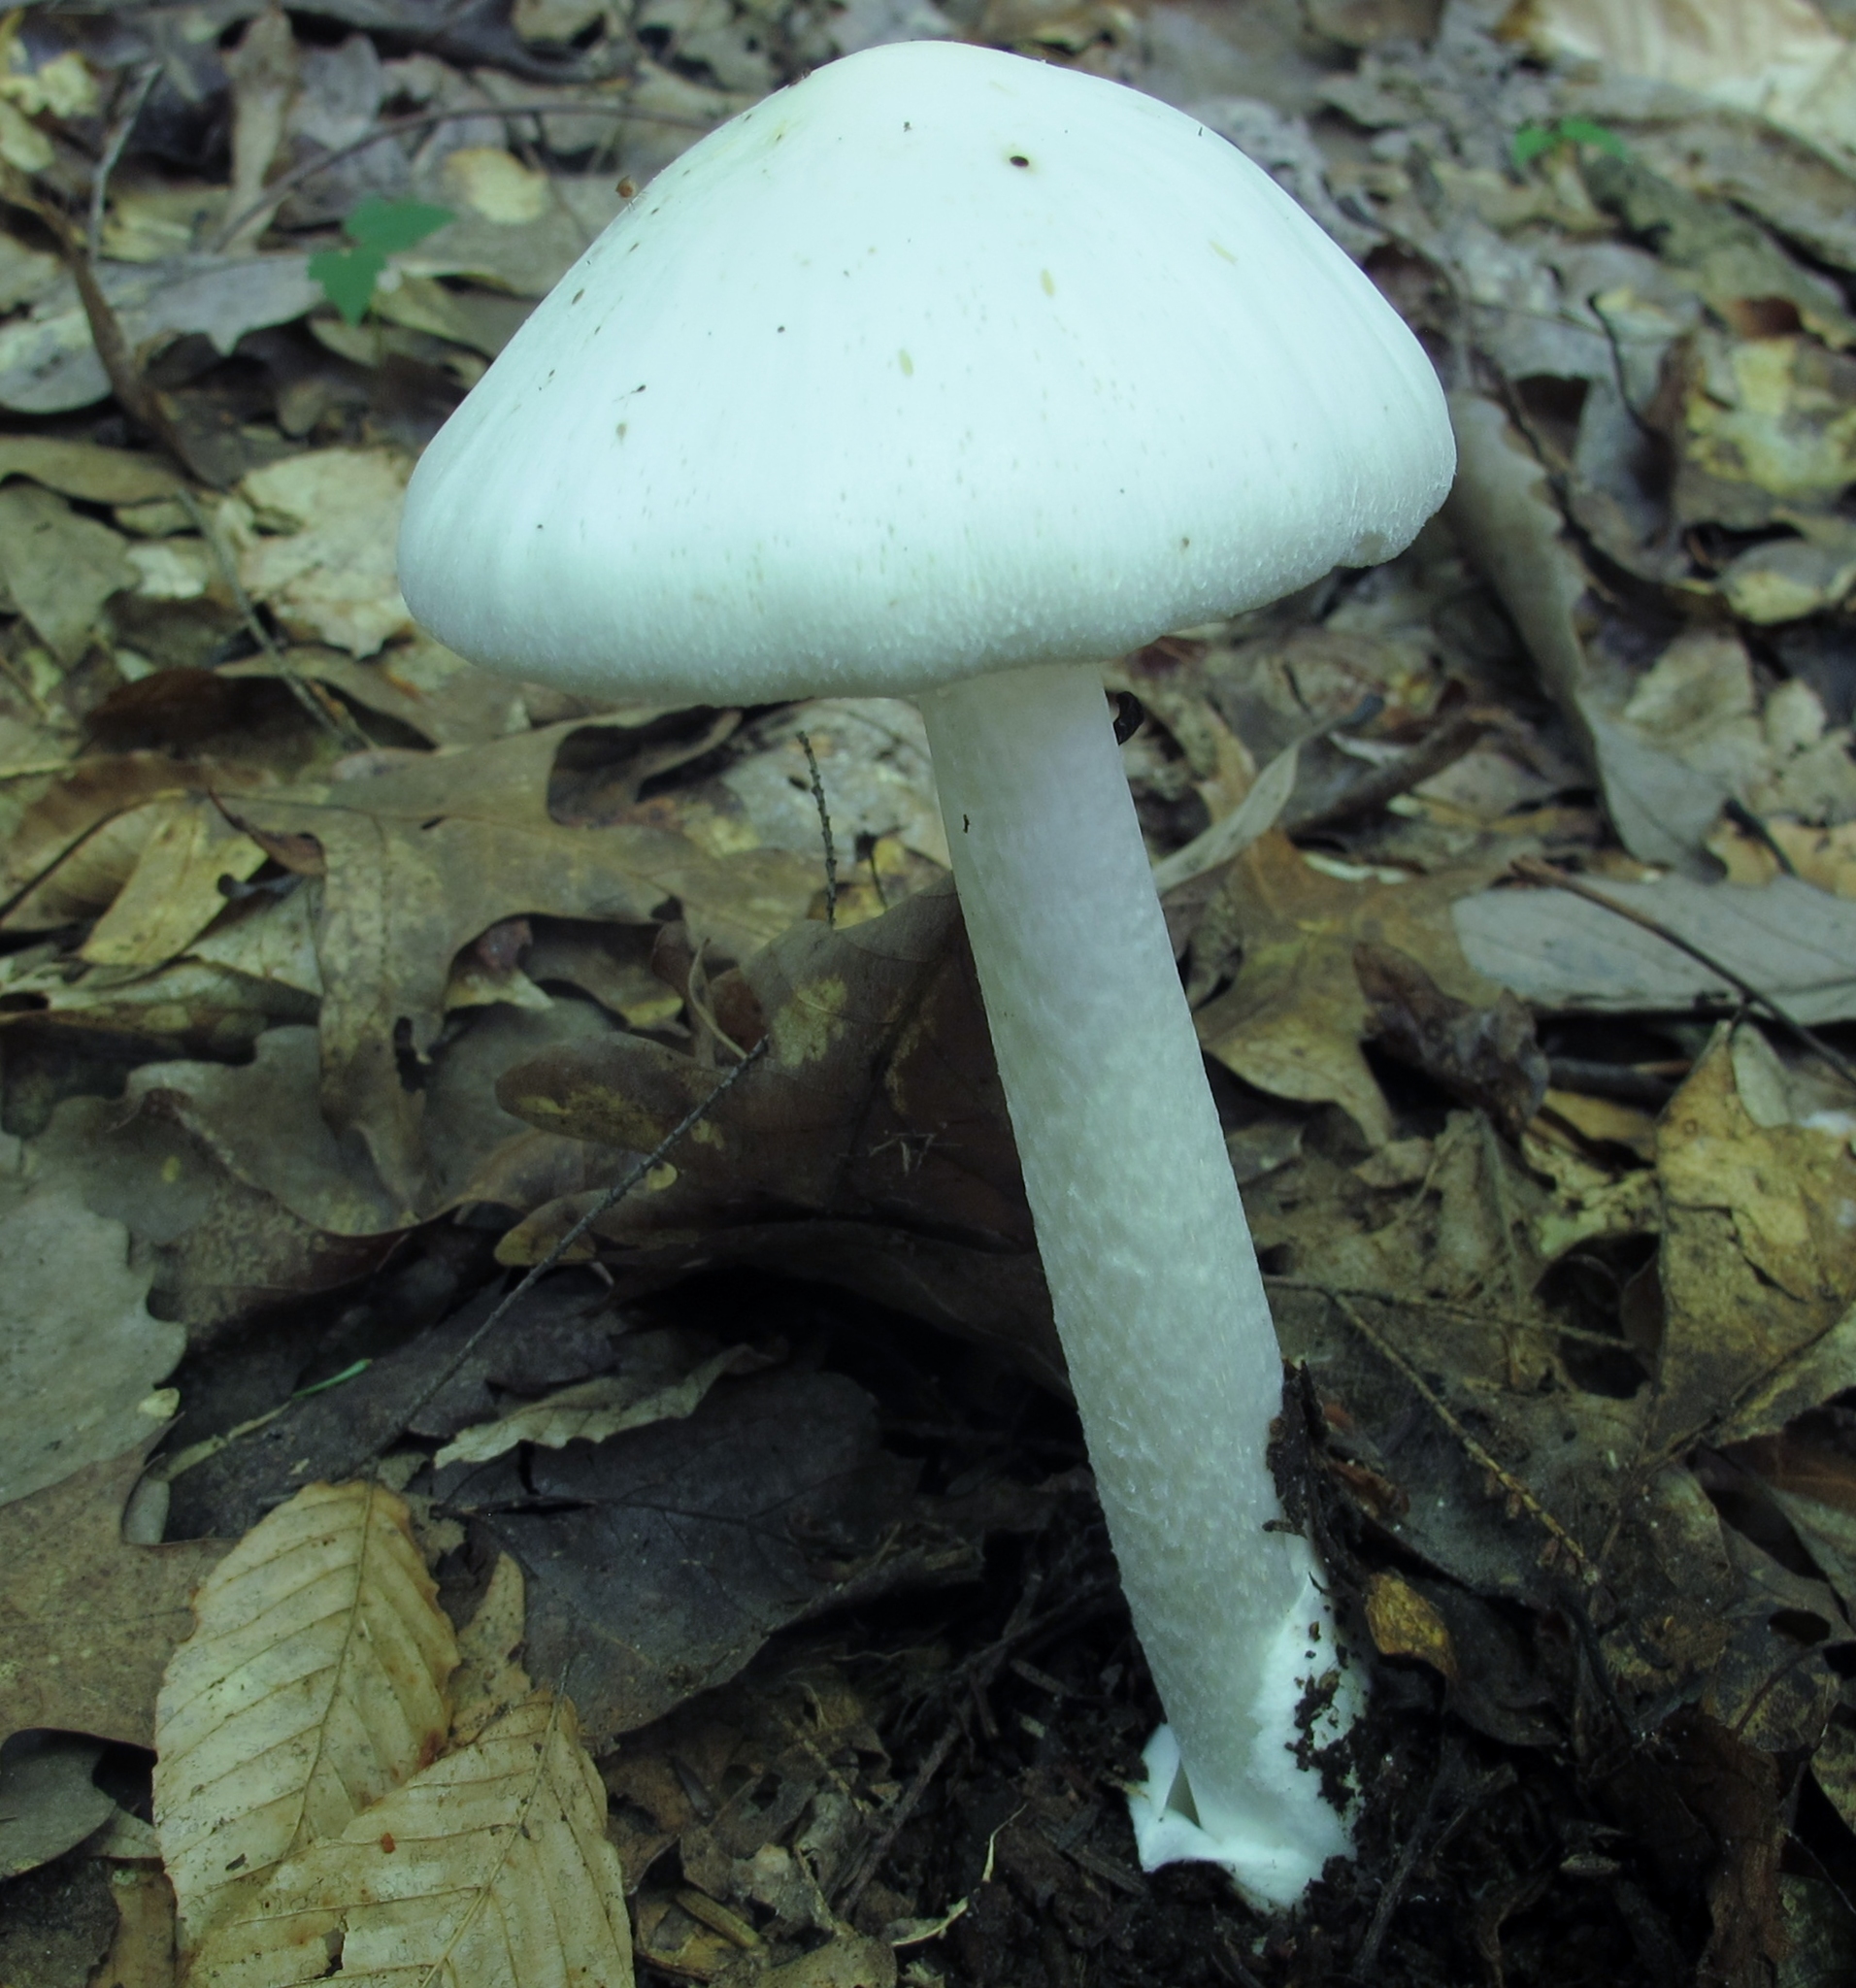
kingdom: Fungi
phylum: Basidiomycota
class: Agaricomycetes
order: Agaricales
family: Amanitaceae
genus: Amanita
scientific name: Amanita bisporigera
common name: Eastern north american destroying angel
